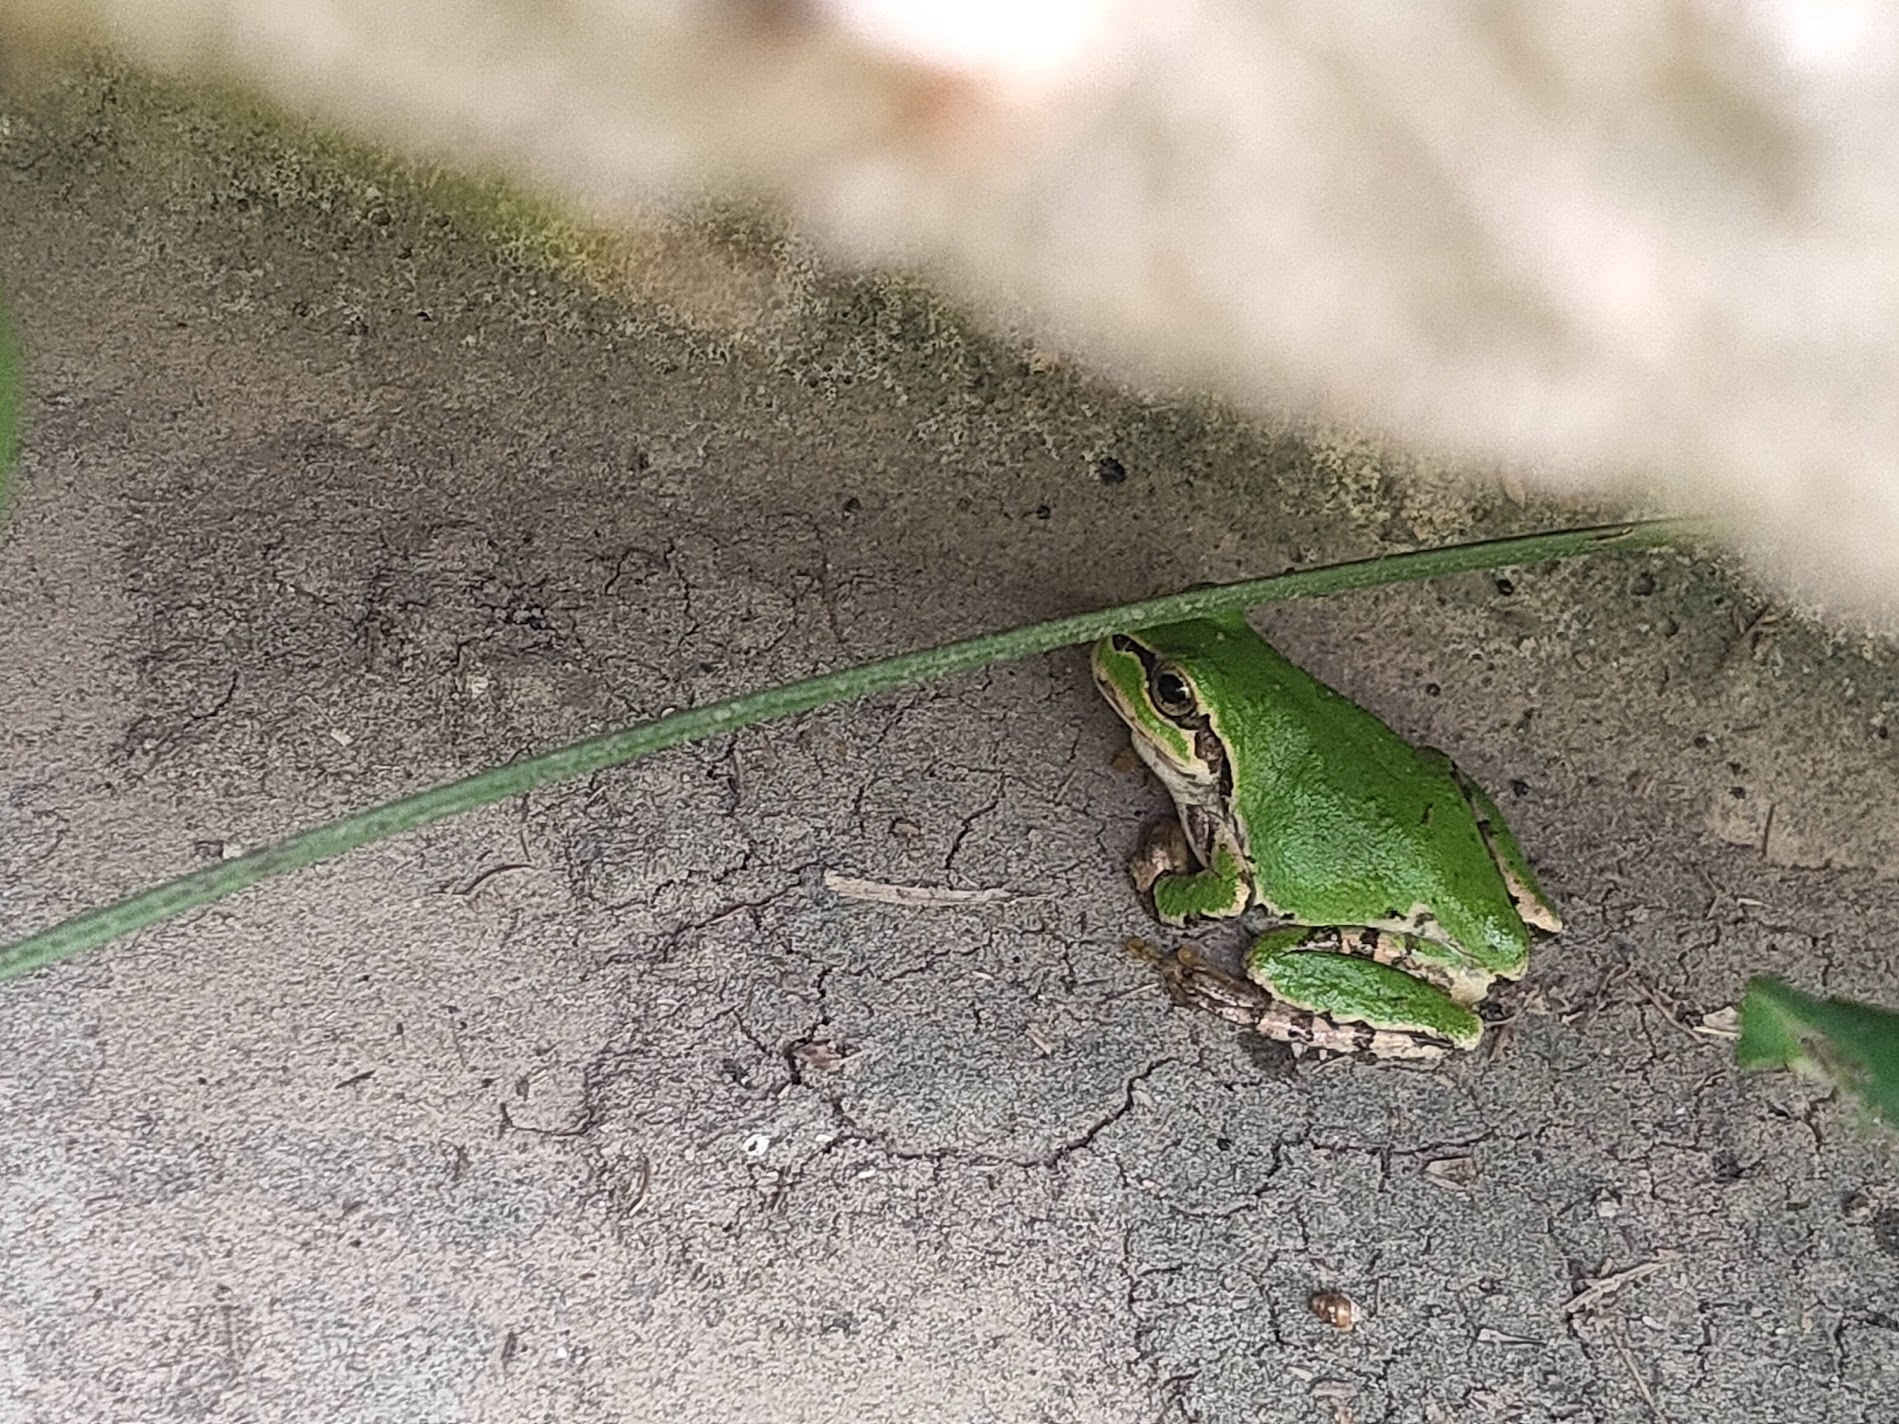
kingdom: Animalia
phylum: Chordata
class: Amphibia
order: Anura
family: Hylidae
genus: Dryophytes
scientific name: Dryophytes japonicus
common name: Japanese treefrog
